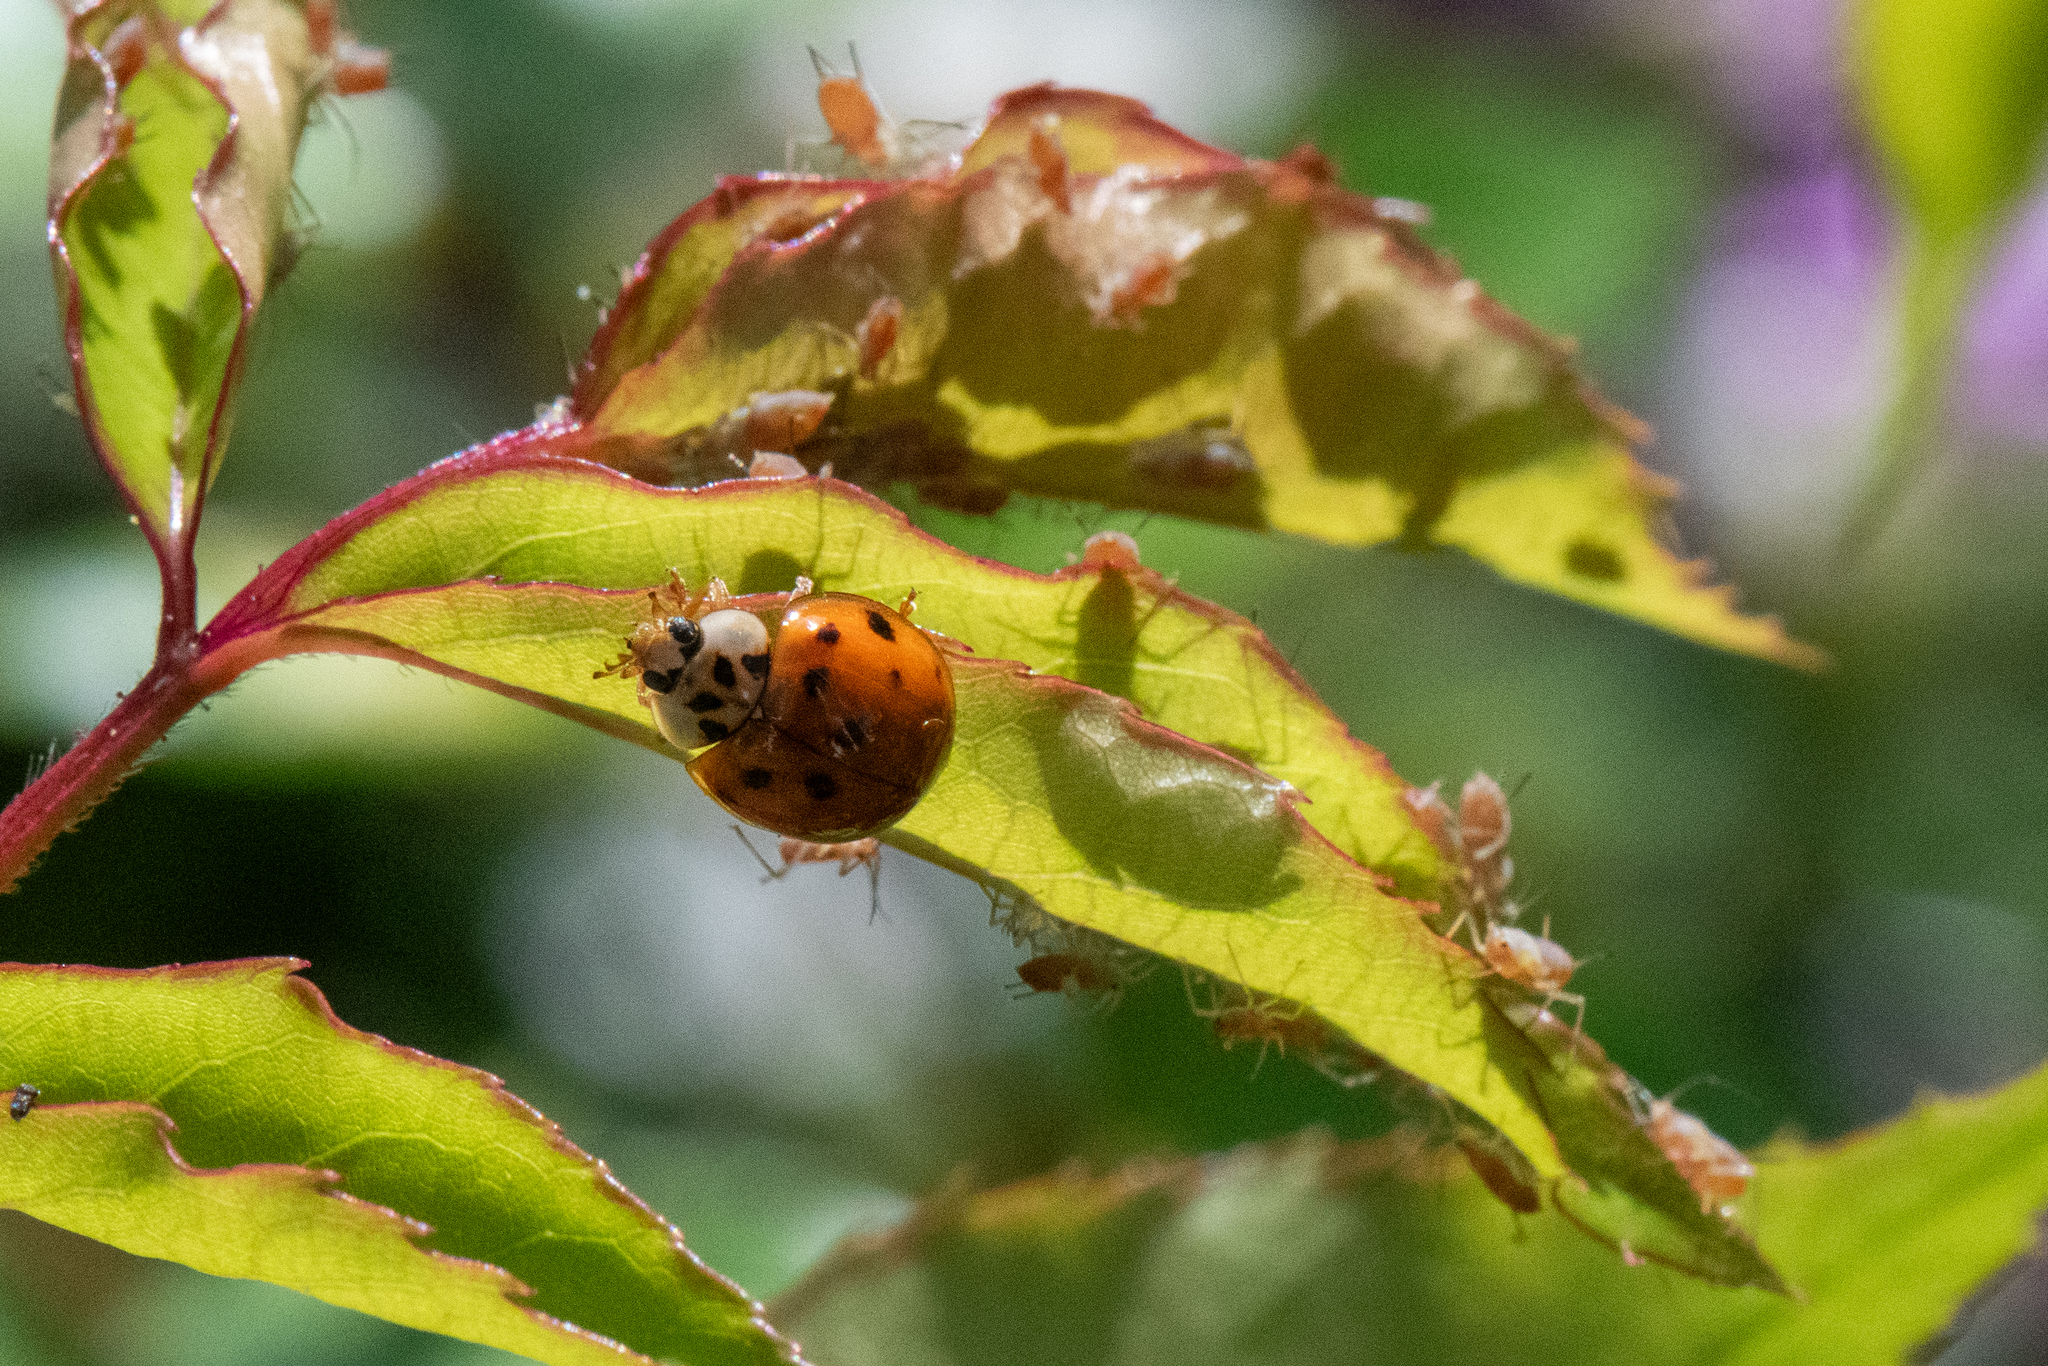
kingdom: Animalia
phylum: Arthropoda
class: Insecta
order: Coleoptera
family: Coccinellidae
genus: Harmonia
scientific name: Harmonia axyridis
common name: Harlequin ladybird
